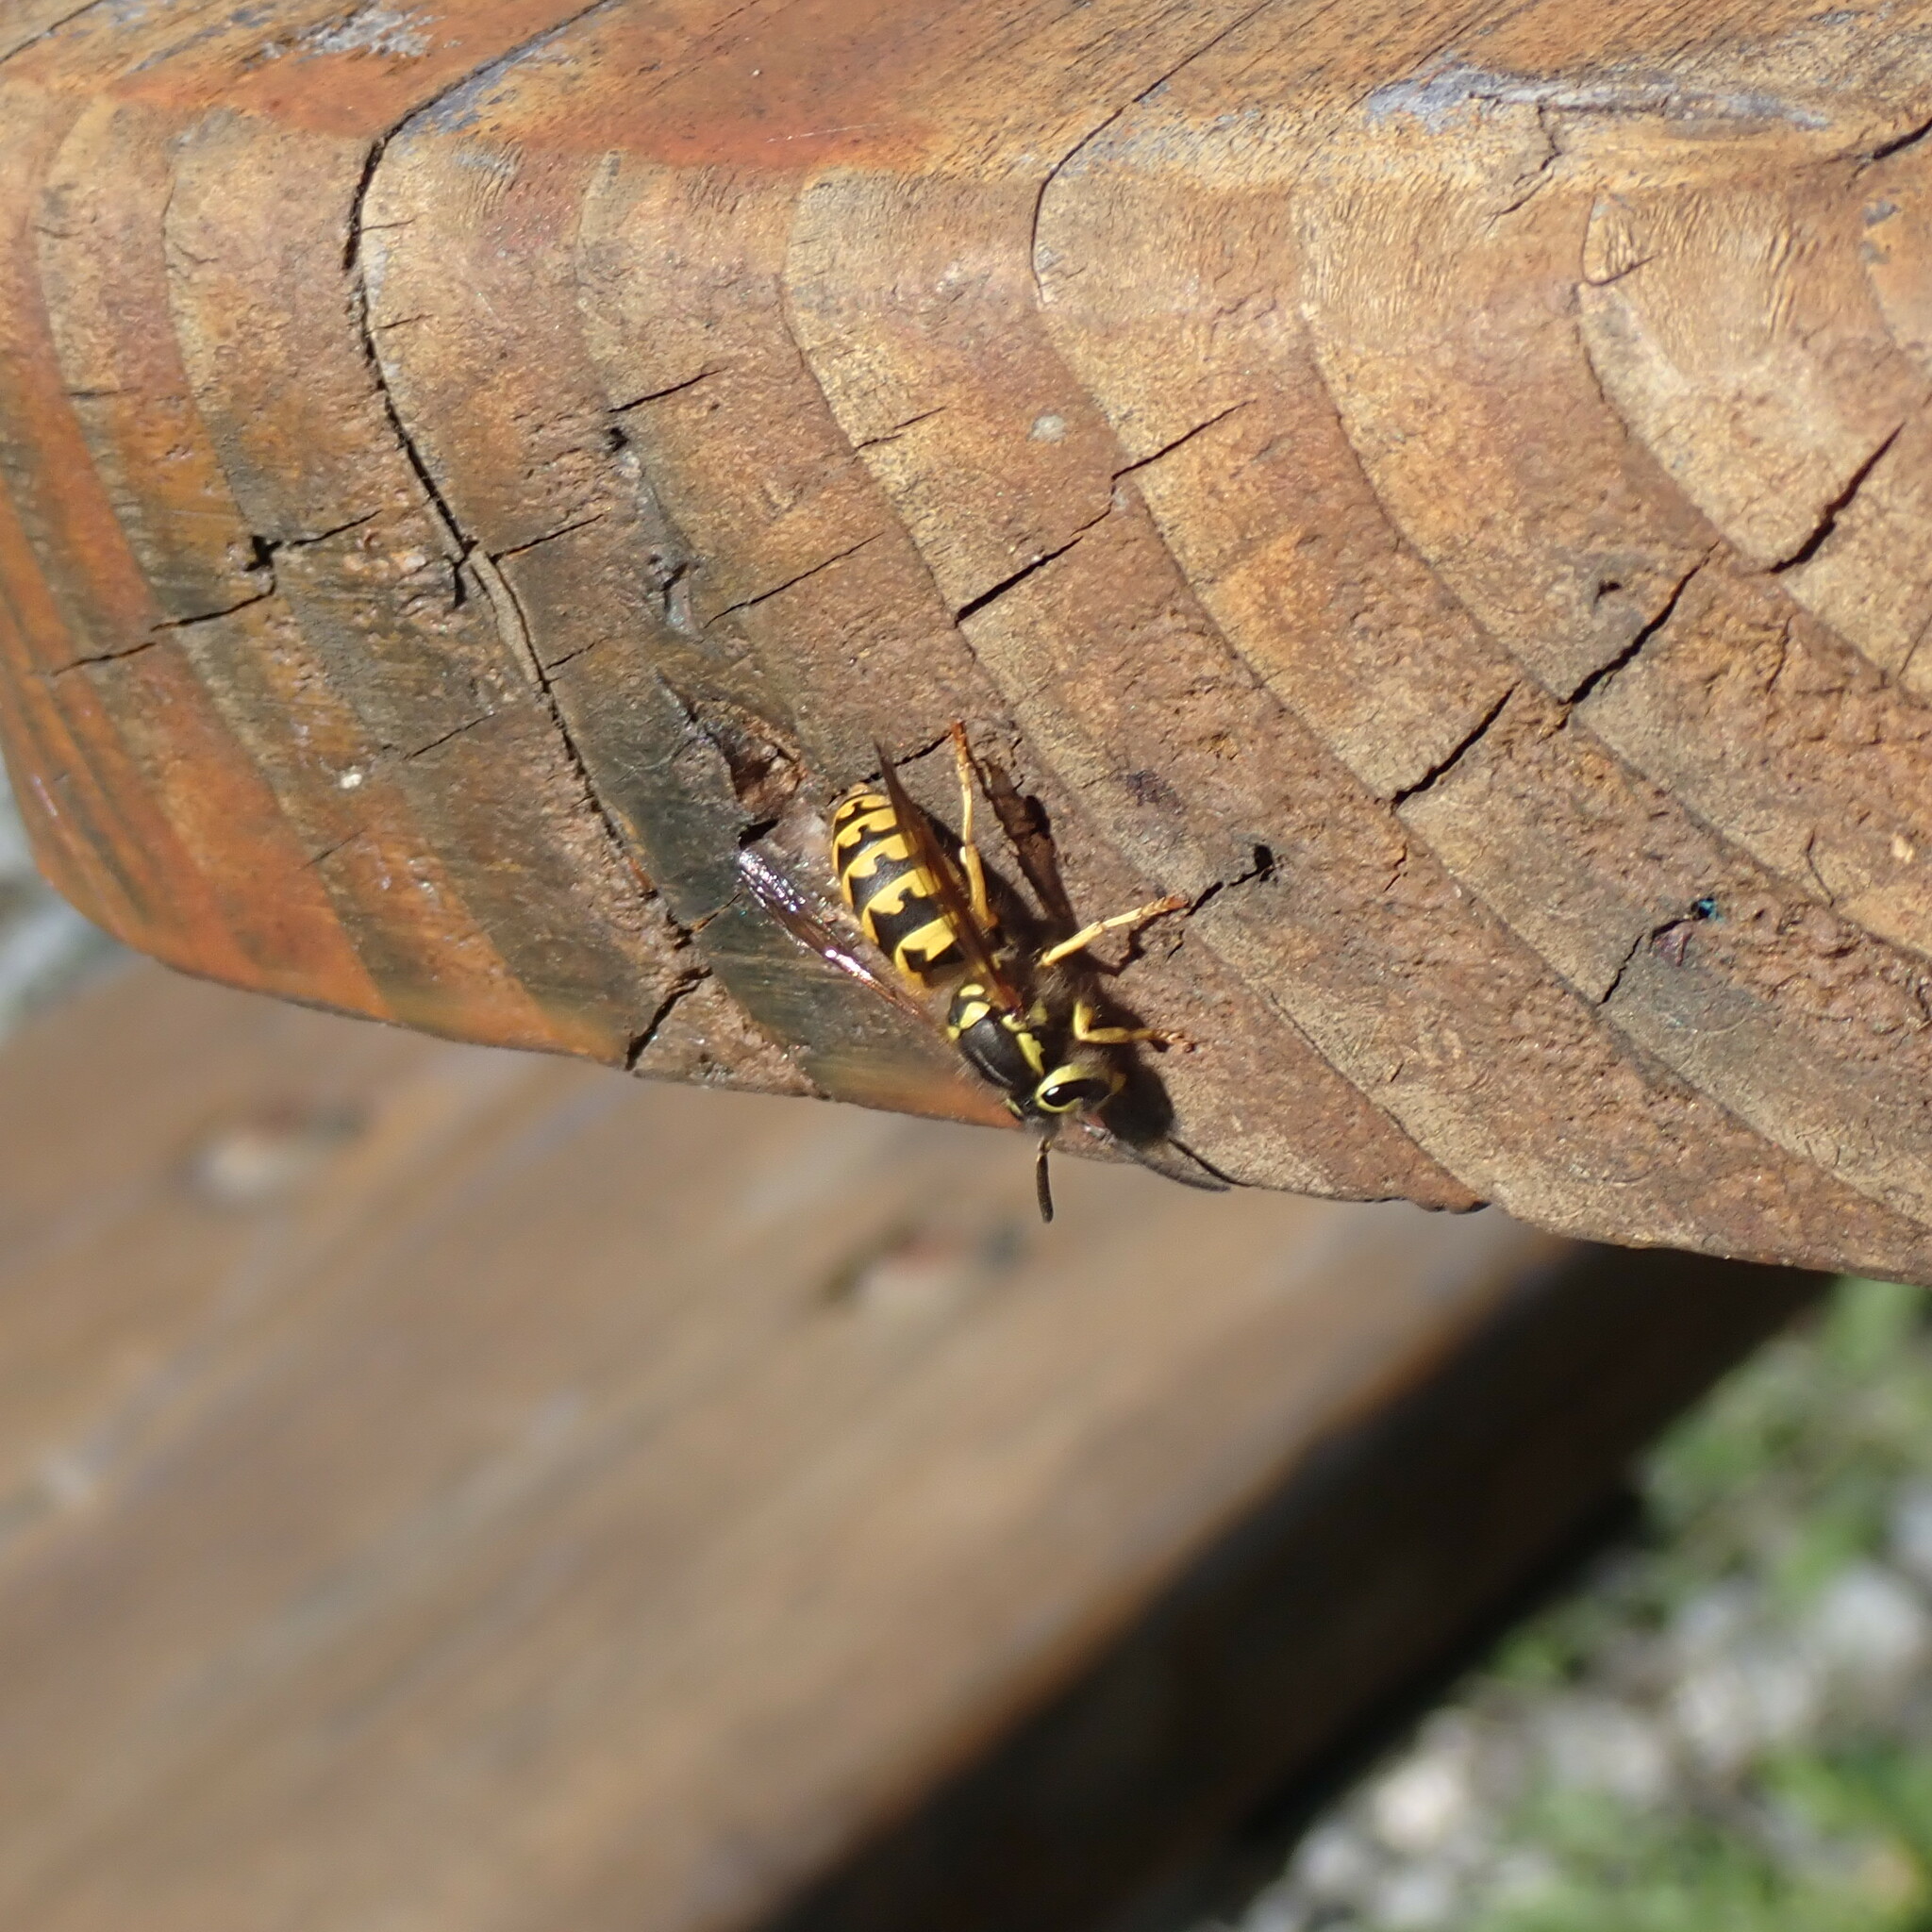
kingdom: Animalia
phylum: Arthropoda
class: Insecta
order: Hymenoptera
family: Vespidae
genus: Vespula
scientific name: Vespula pensylvanica
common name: Western yellowjacket
